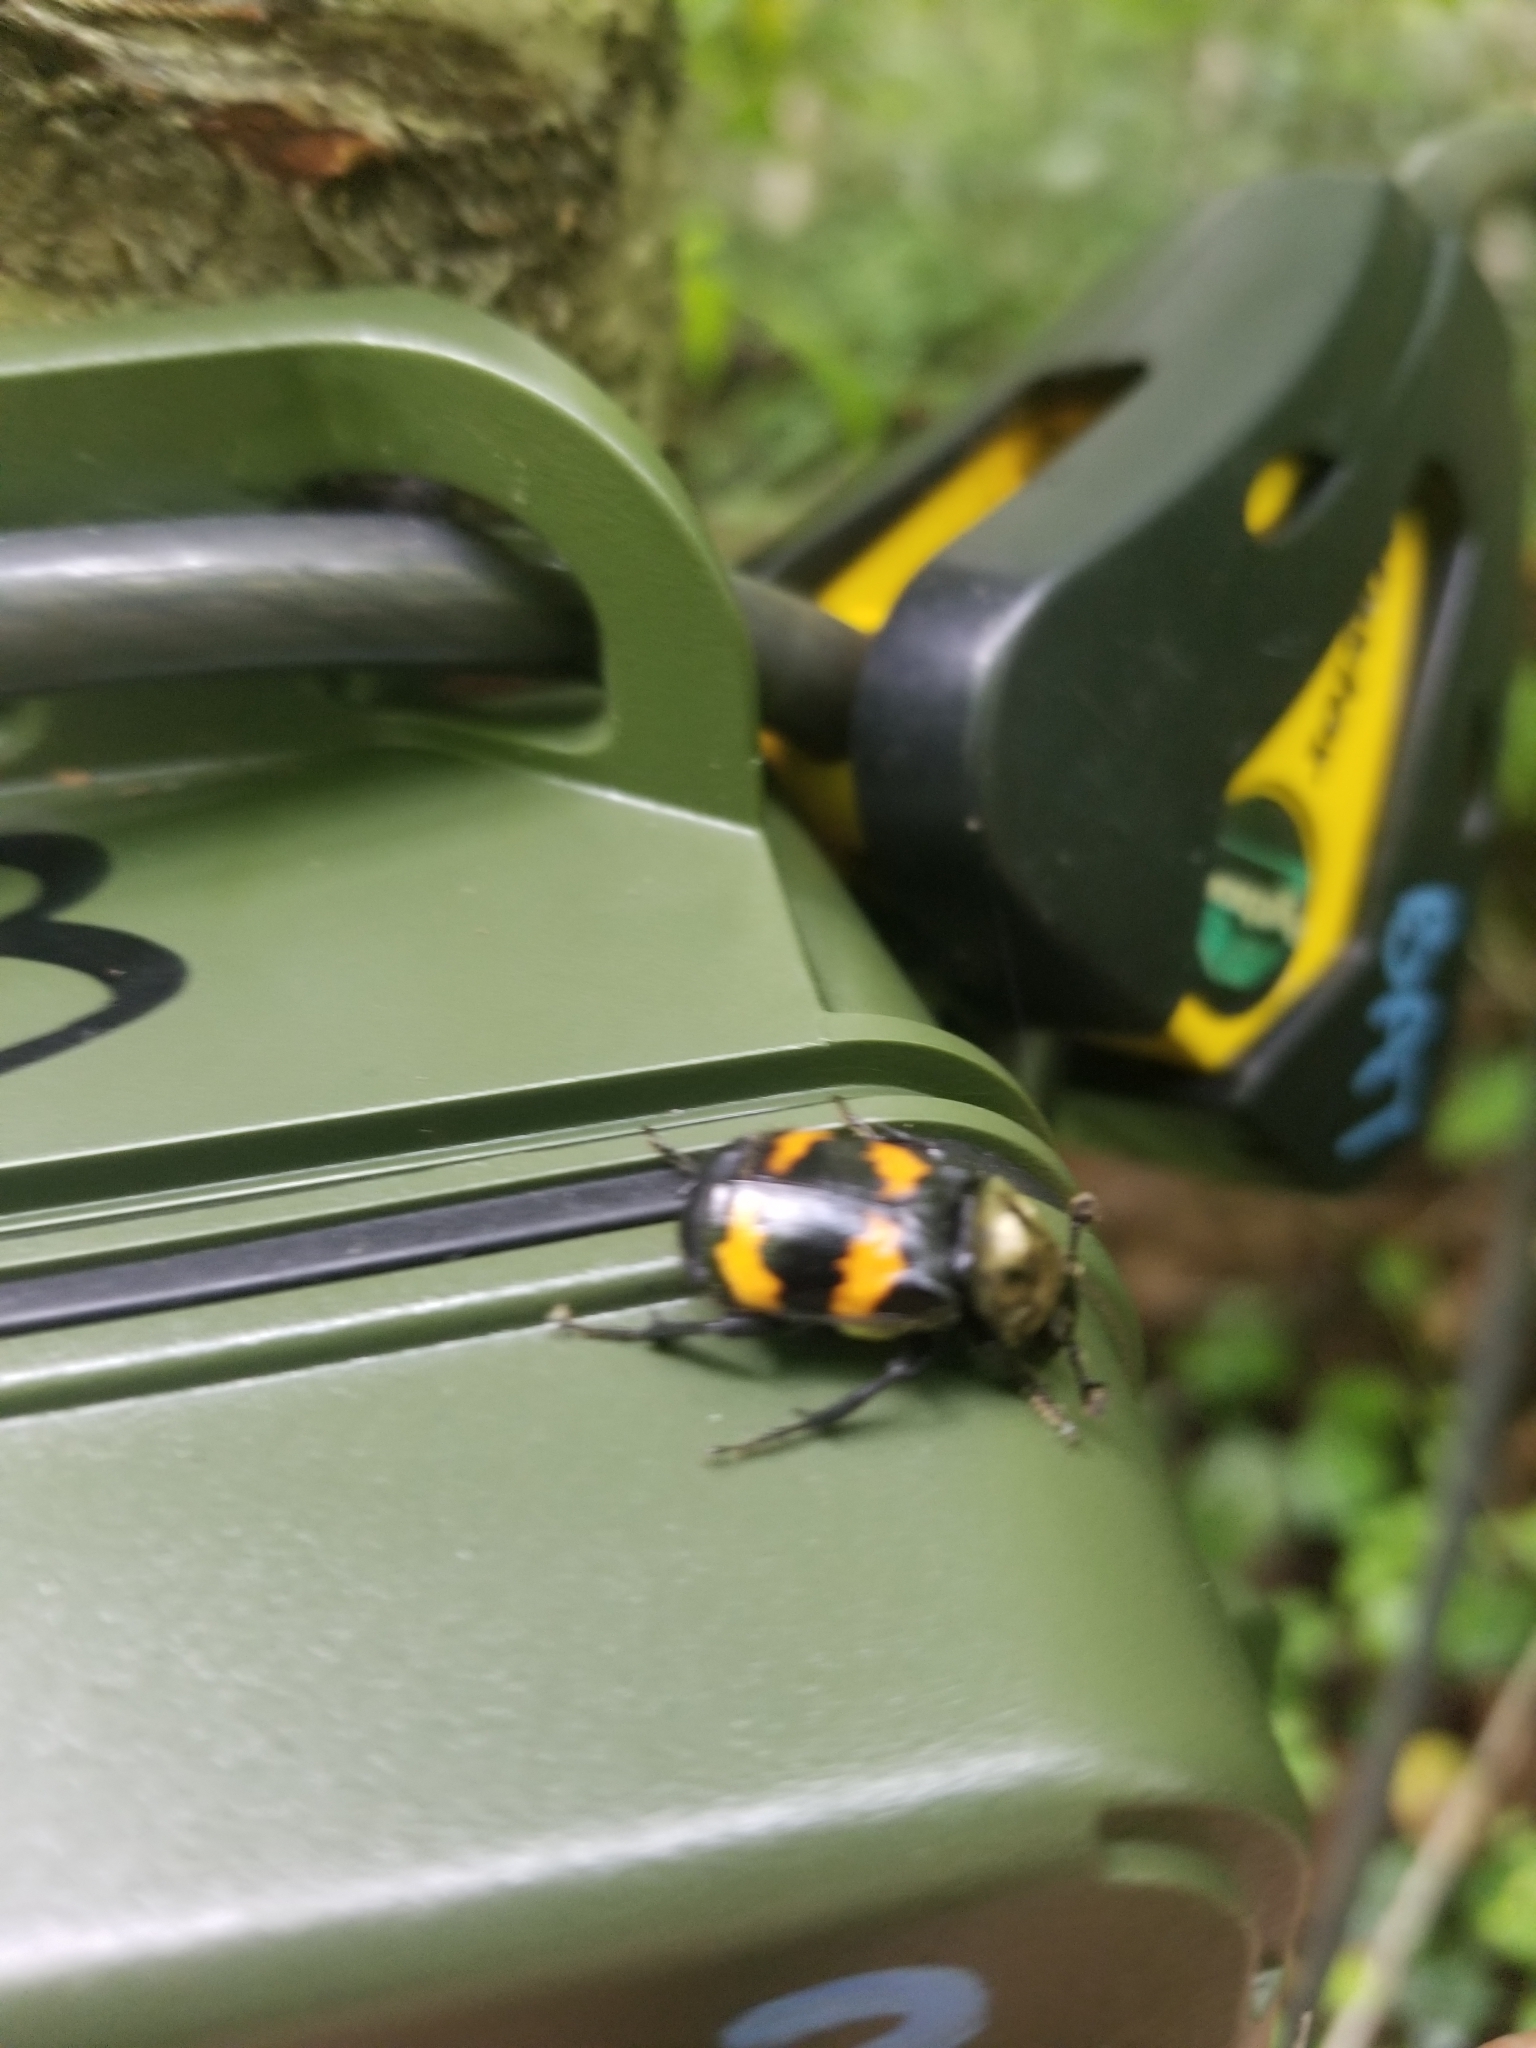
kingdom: Animalia
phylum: Arthropoda
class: Insecta
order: Coleoptera
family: Staphylinidae
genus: Nicrophorus
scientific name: Nicrophorus tomentosus
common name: Tomentose burying beetle
